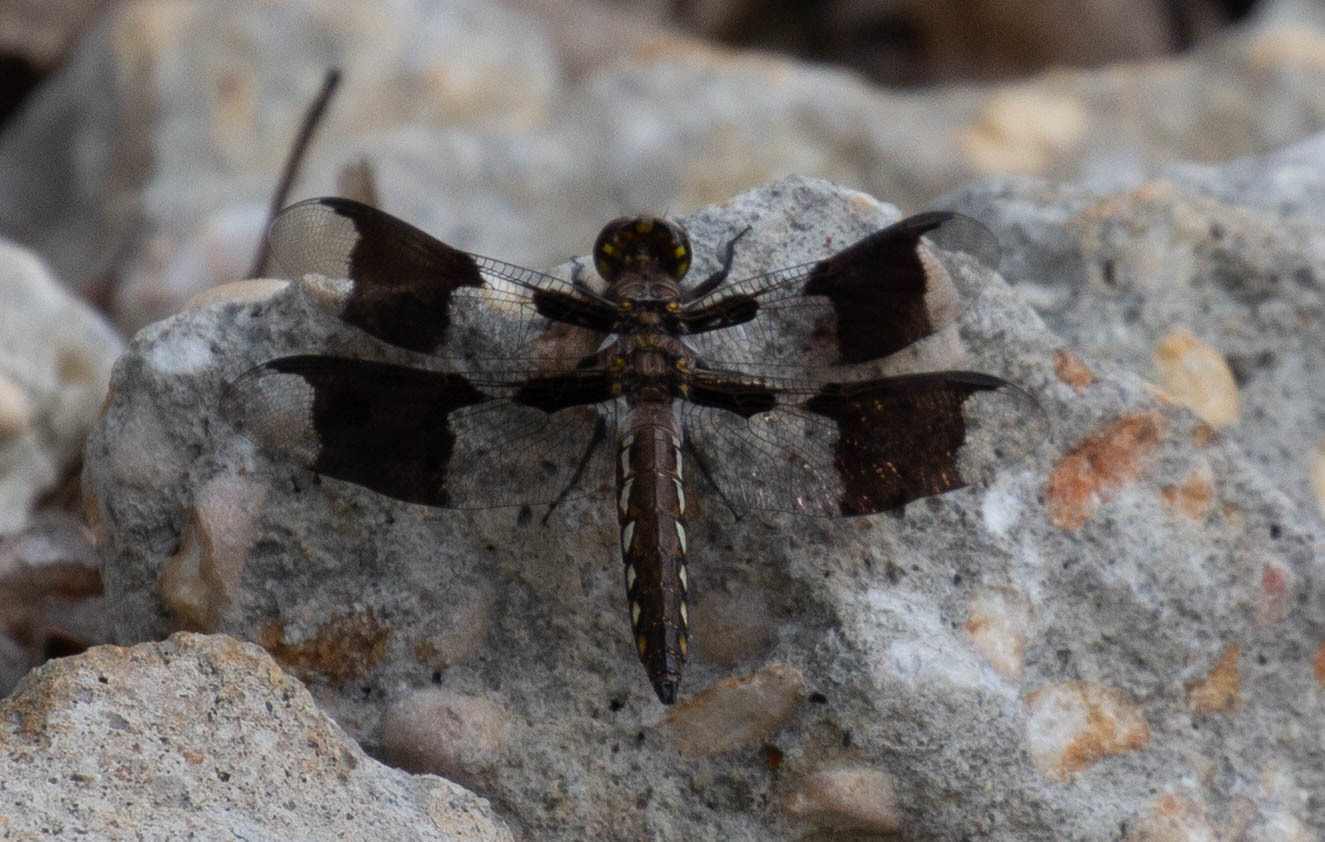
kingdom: Animalia
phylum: Arthropoda
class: Insecta
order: Odonata
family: Libellulidae
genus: Plathemis
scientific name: Plathemis lydia
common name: Common whitetail
